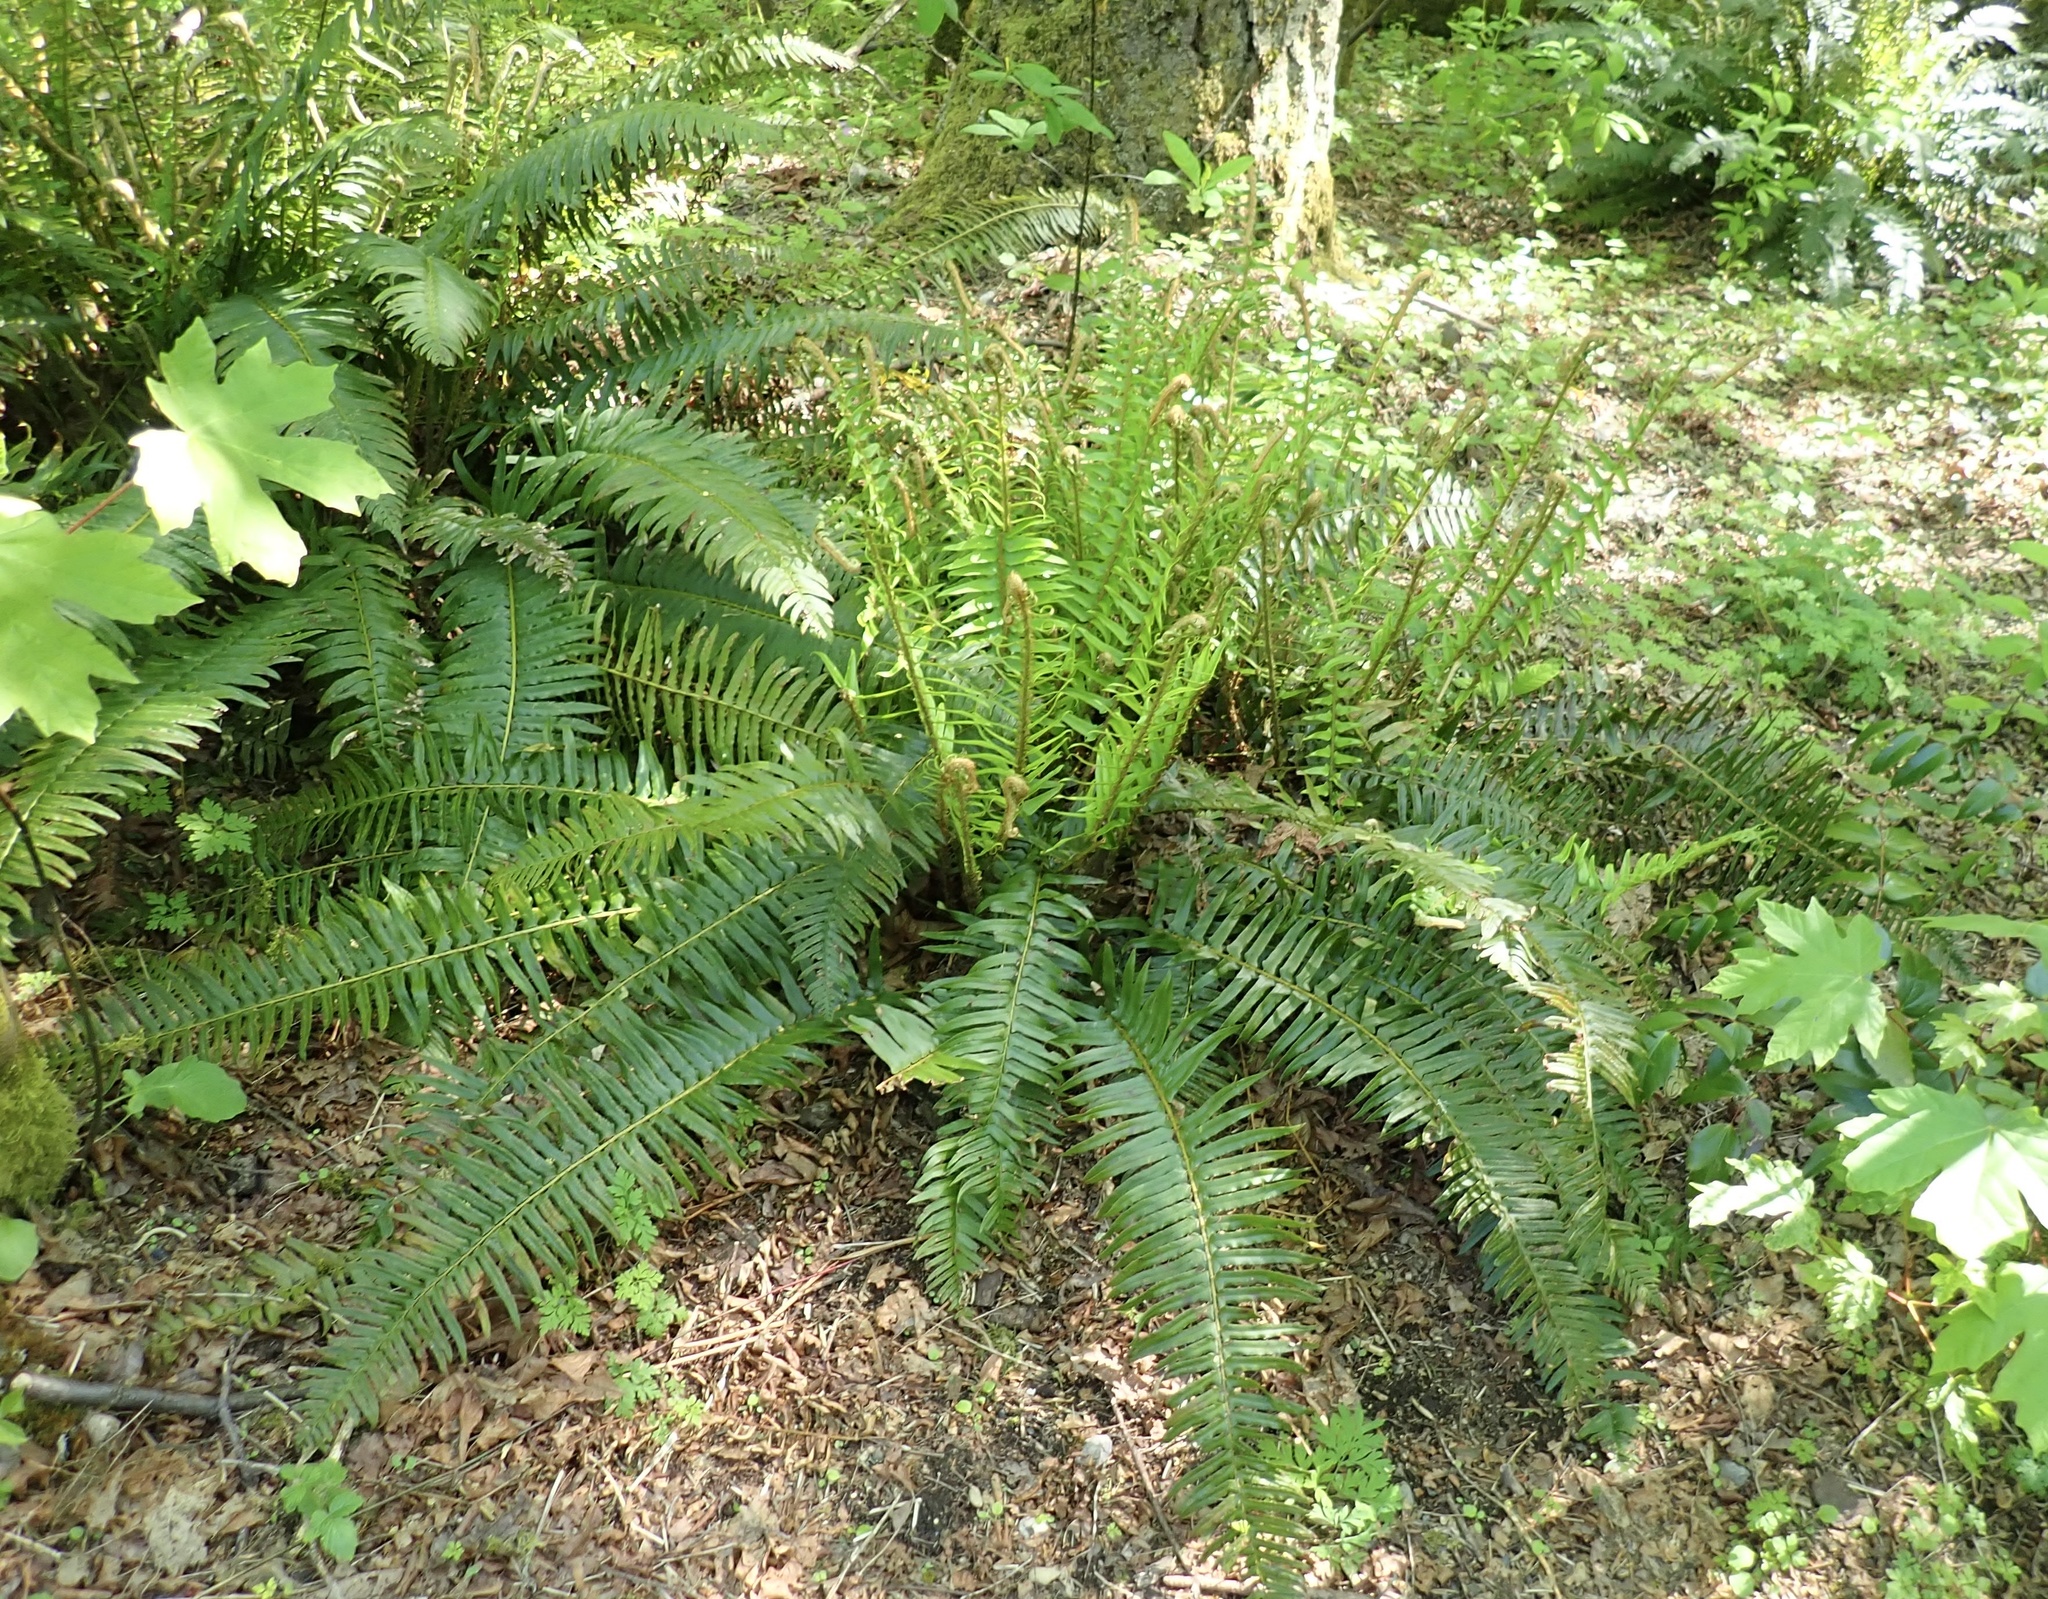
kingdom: Plantae
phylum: Tracheophyta
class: Polypodiopsida
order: Polypodiales
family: Dryopteridaceae
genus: Polystichum
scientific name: Polystichum munitum
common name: Western sword-fern
